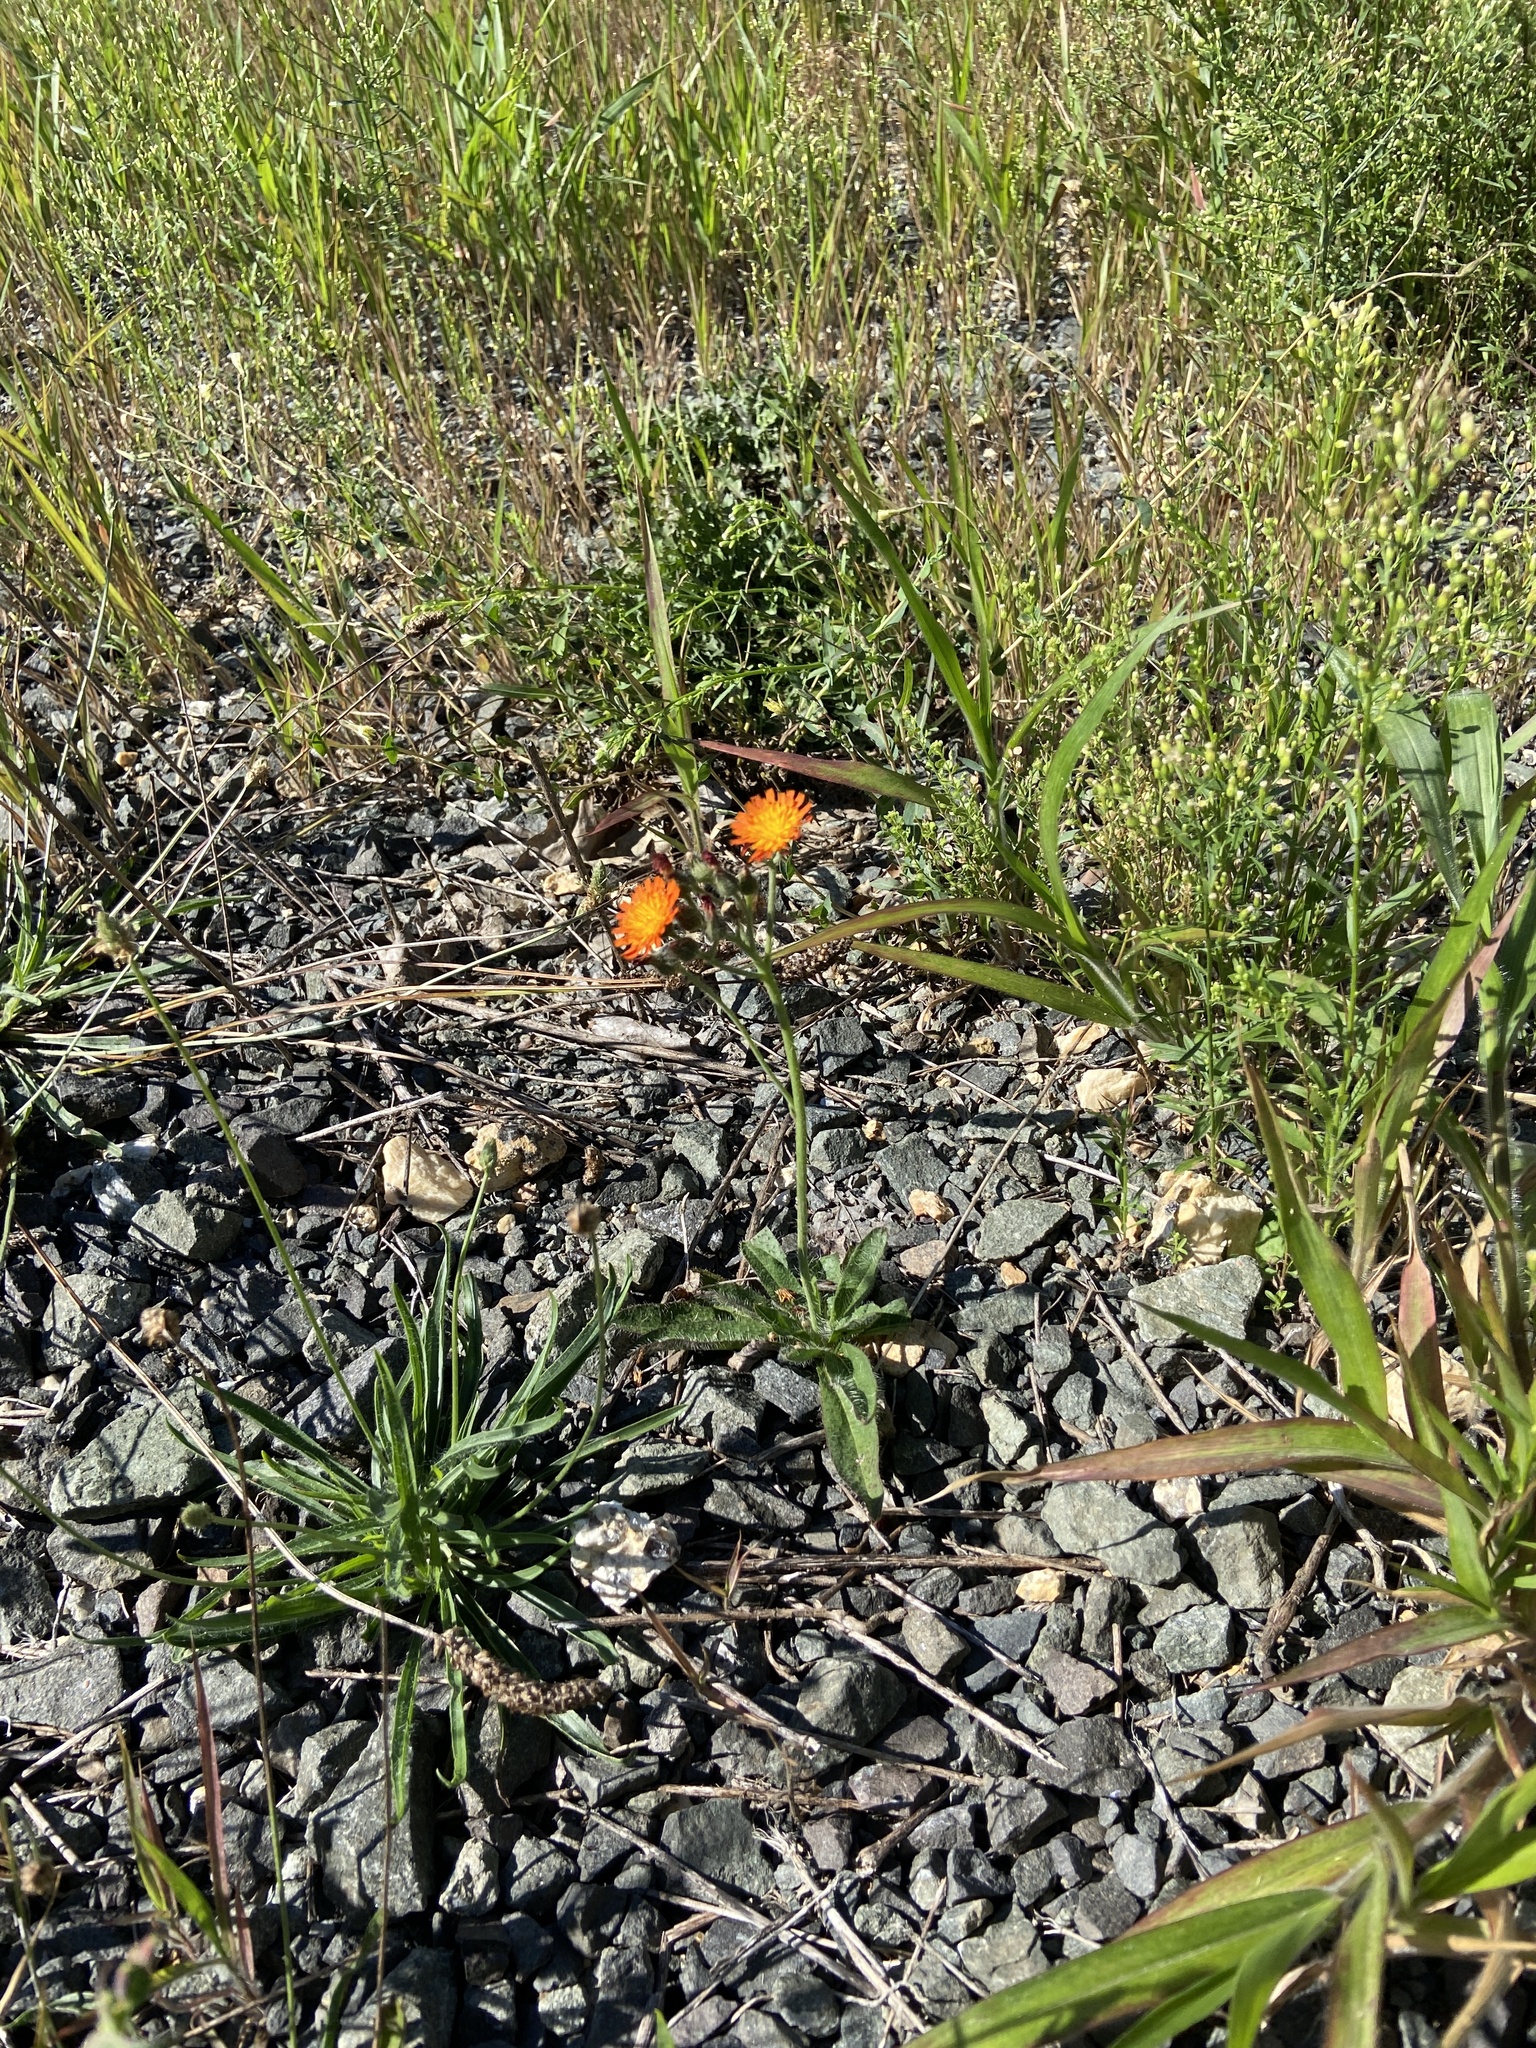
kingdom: Plantae
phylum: Tracheophyta
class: Magnoliopsida
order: Asterales
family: Asteraceae
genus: Pilosella
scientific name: Pilosella aurantiaca
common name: Fox-and-cubs
